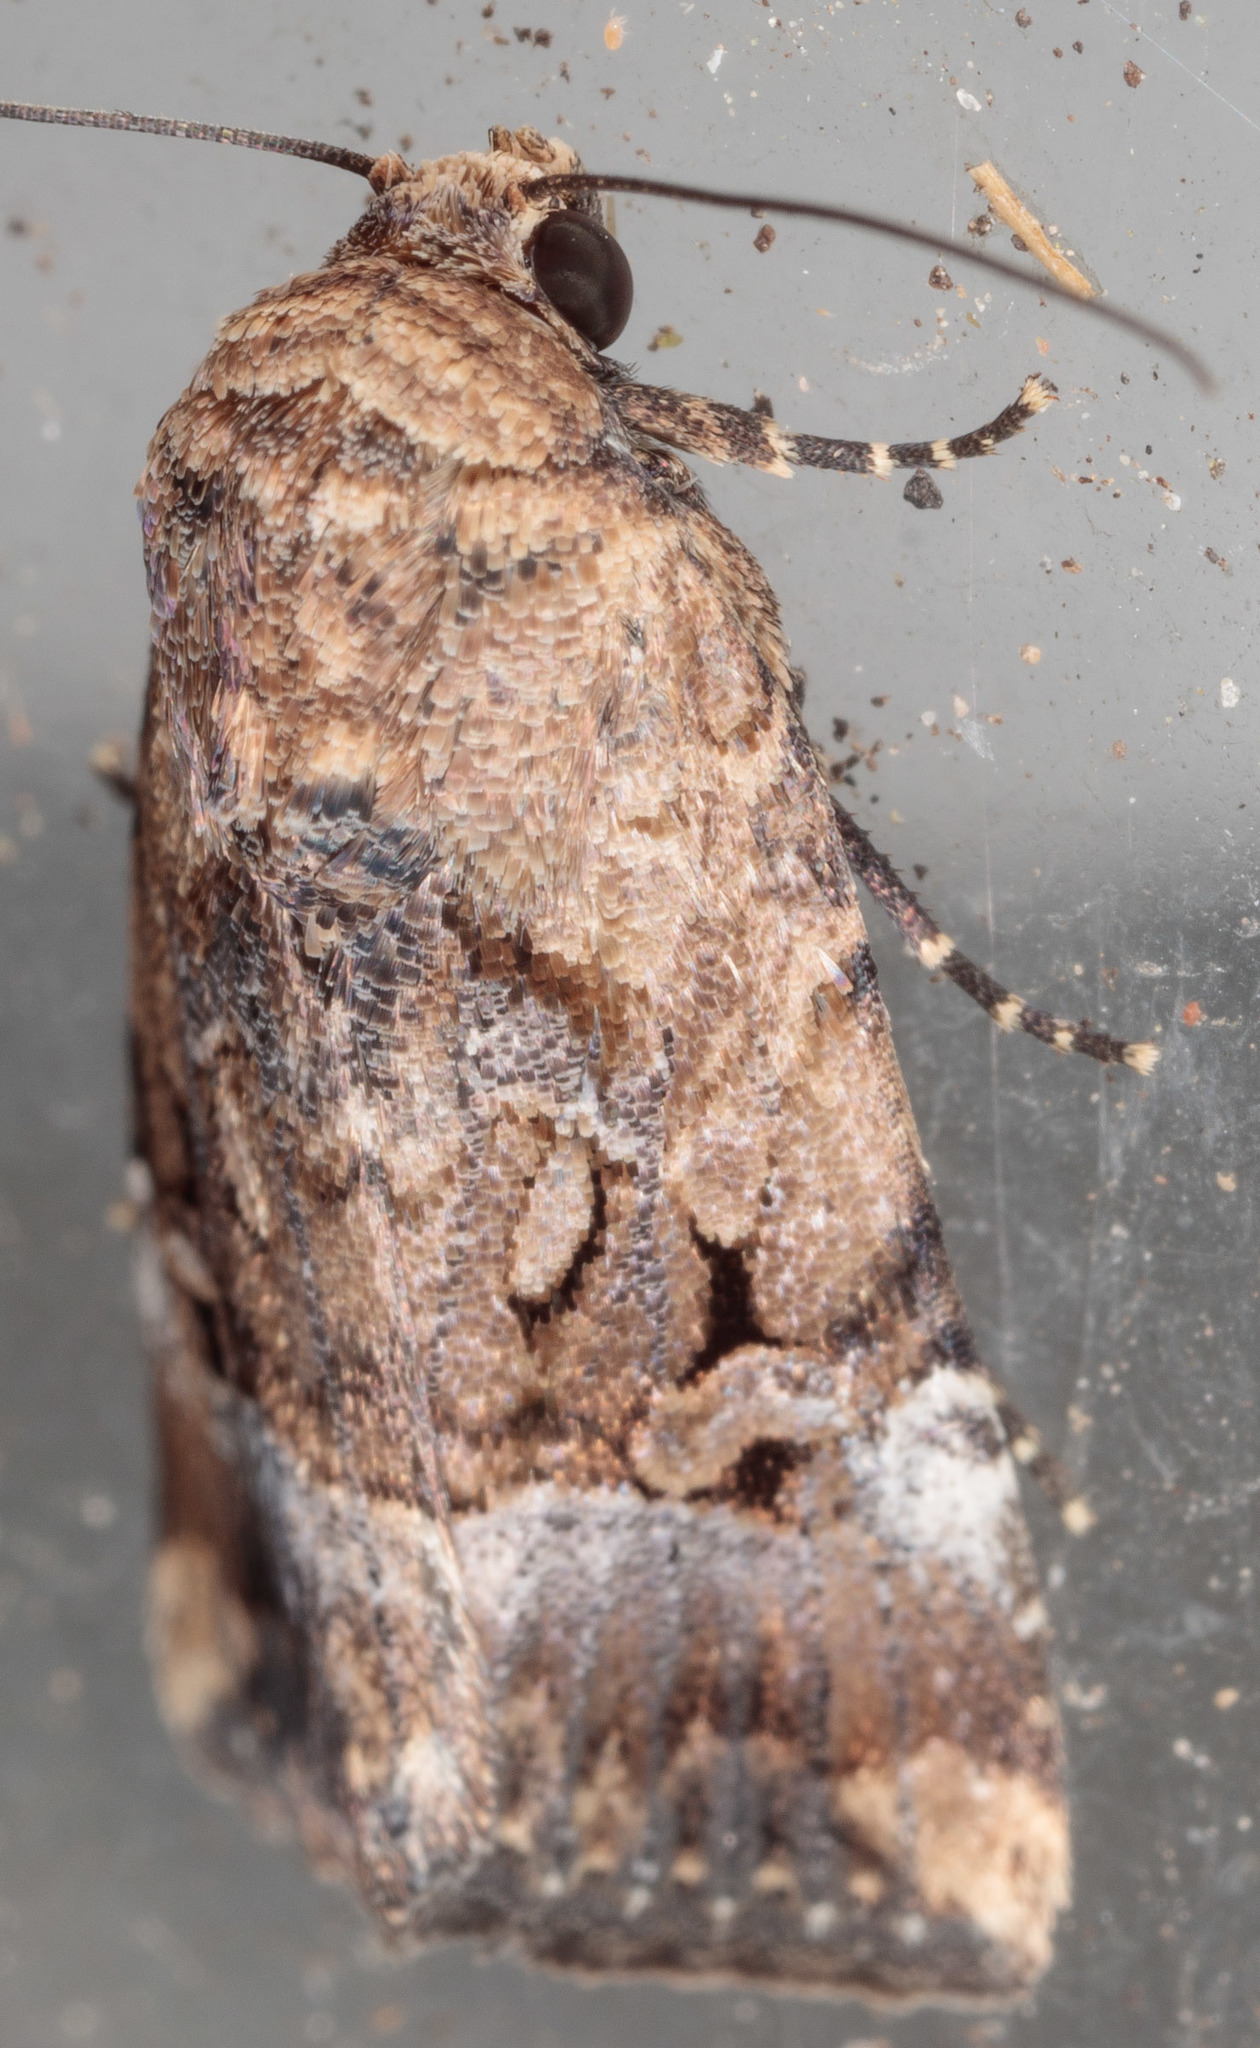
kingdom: Animalia
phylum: Arthropoda
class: Insecta
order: Lepidoptera
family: Noctuidae
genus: Elaphria
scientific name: Elaphria chalcedonia
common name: Chalcedony midget
